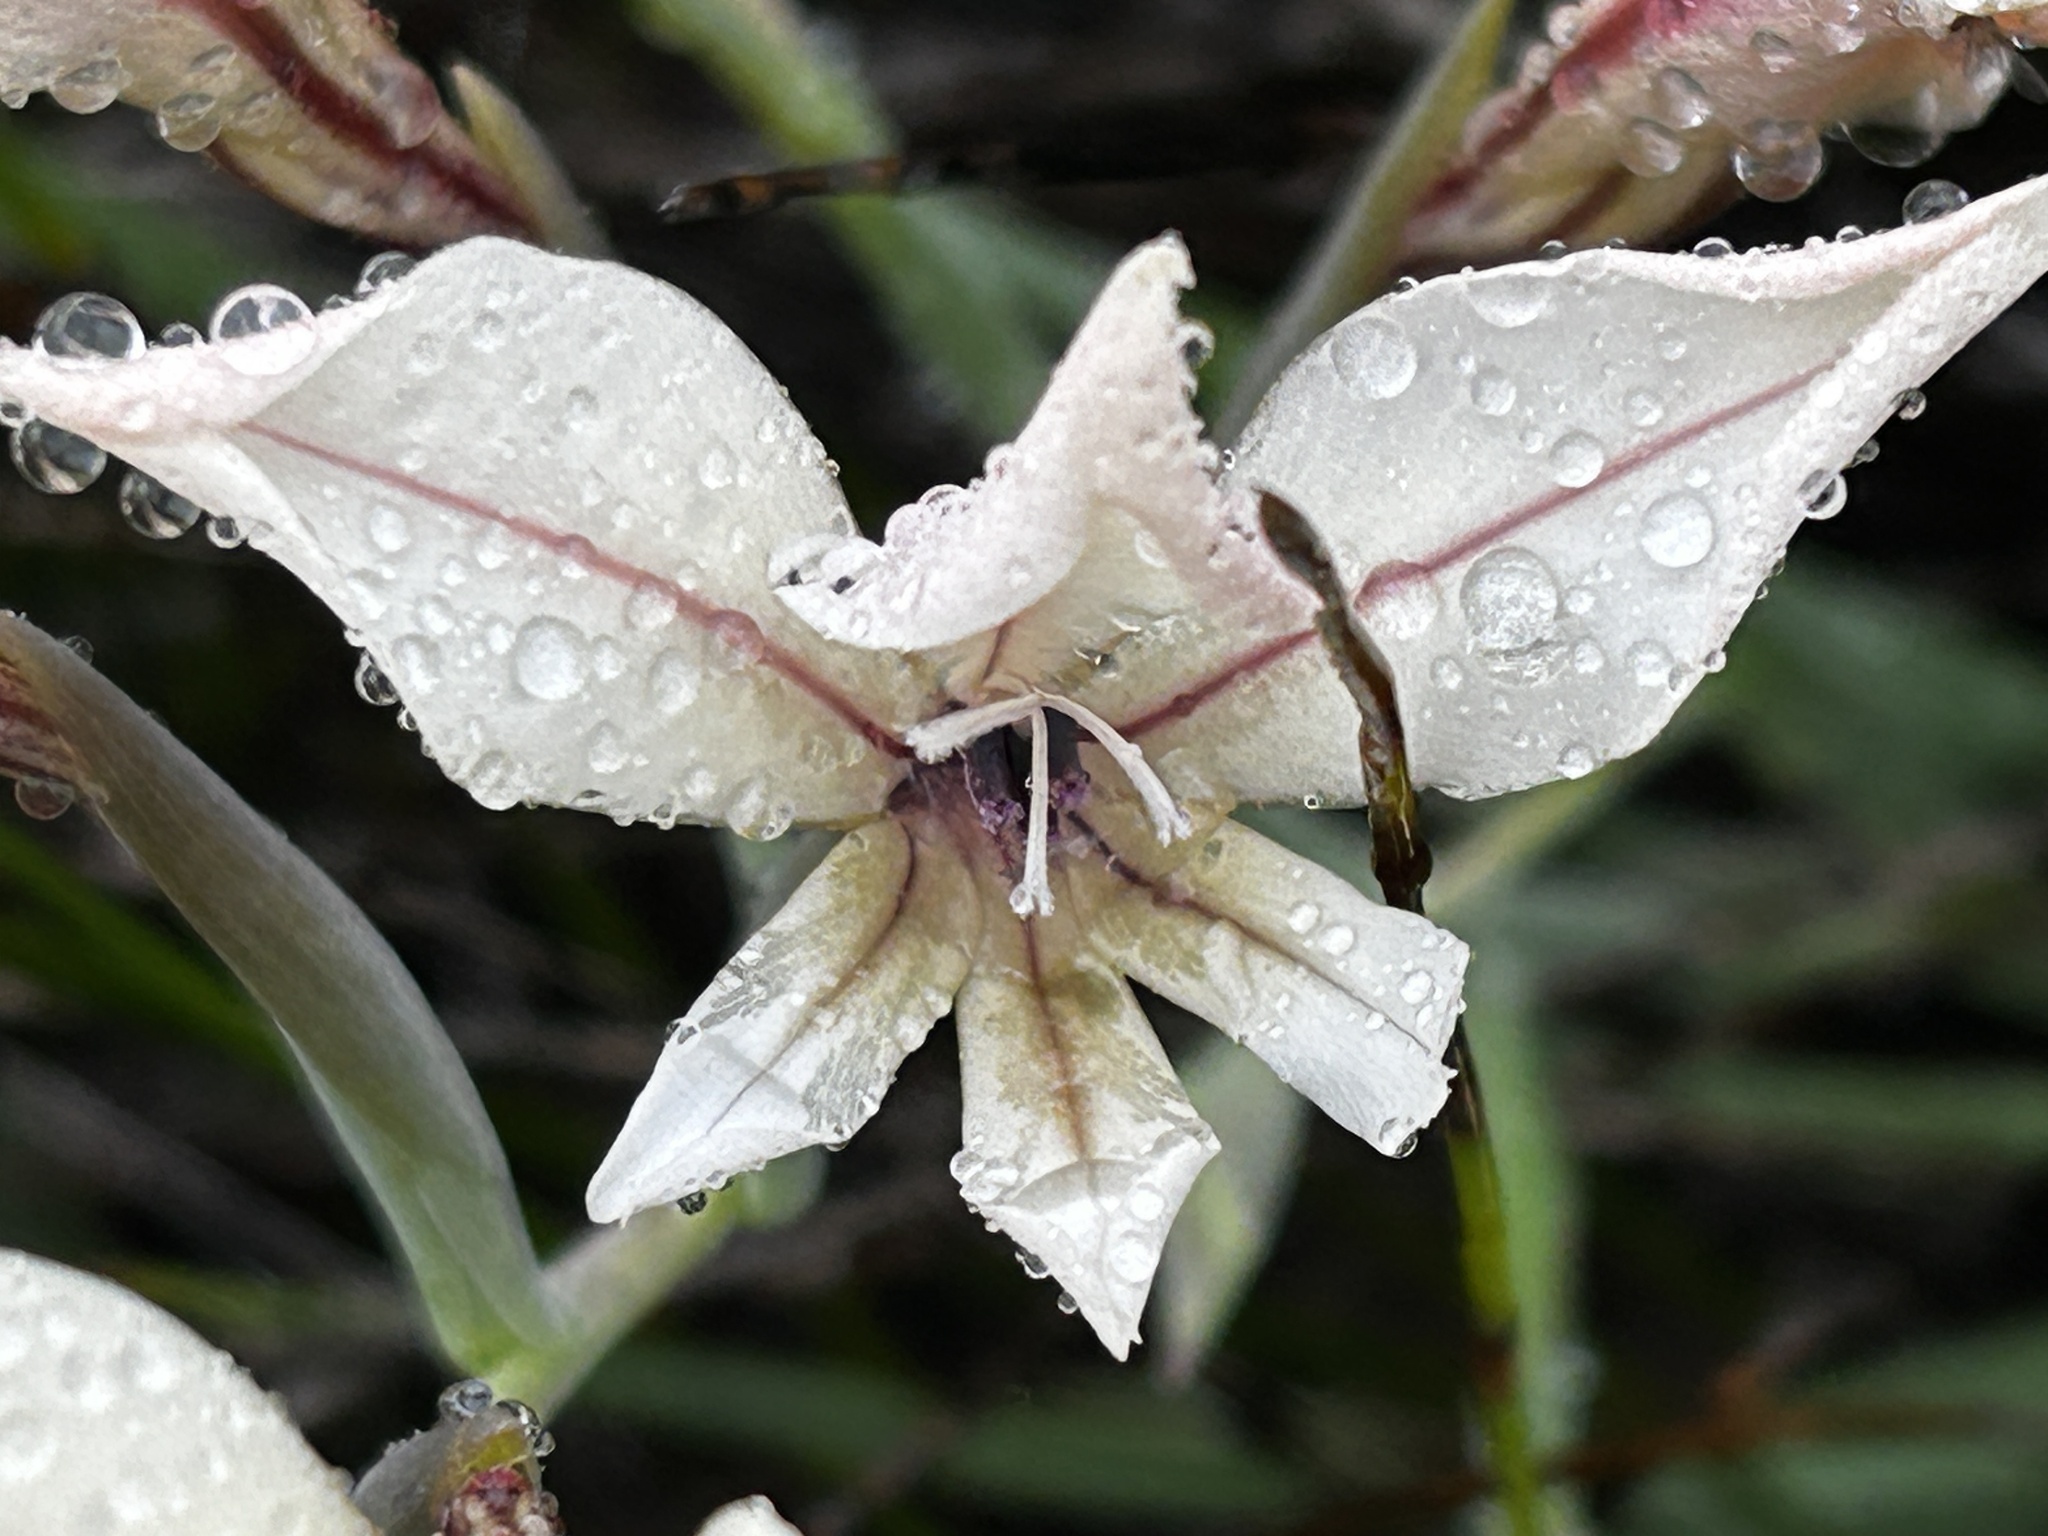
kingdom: Plantae
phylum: Tracheophyta
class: Liliopsida
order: Asparagales
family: Iridaceae
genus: Gladiolus
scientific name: Gladiolus floribundus
